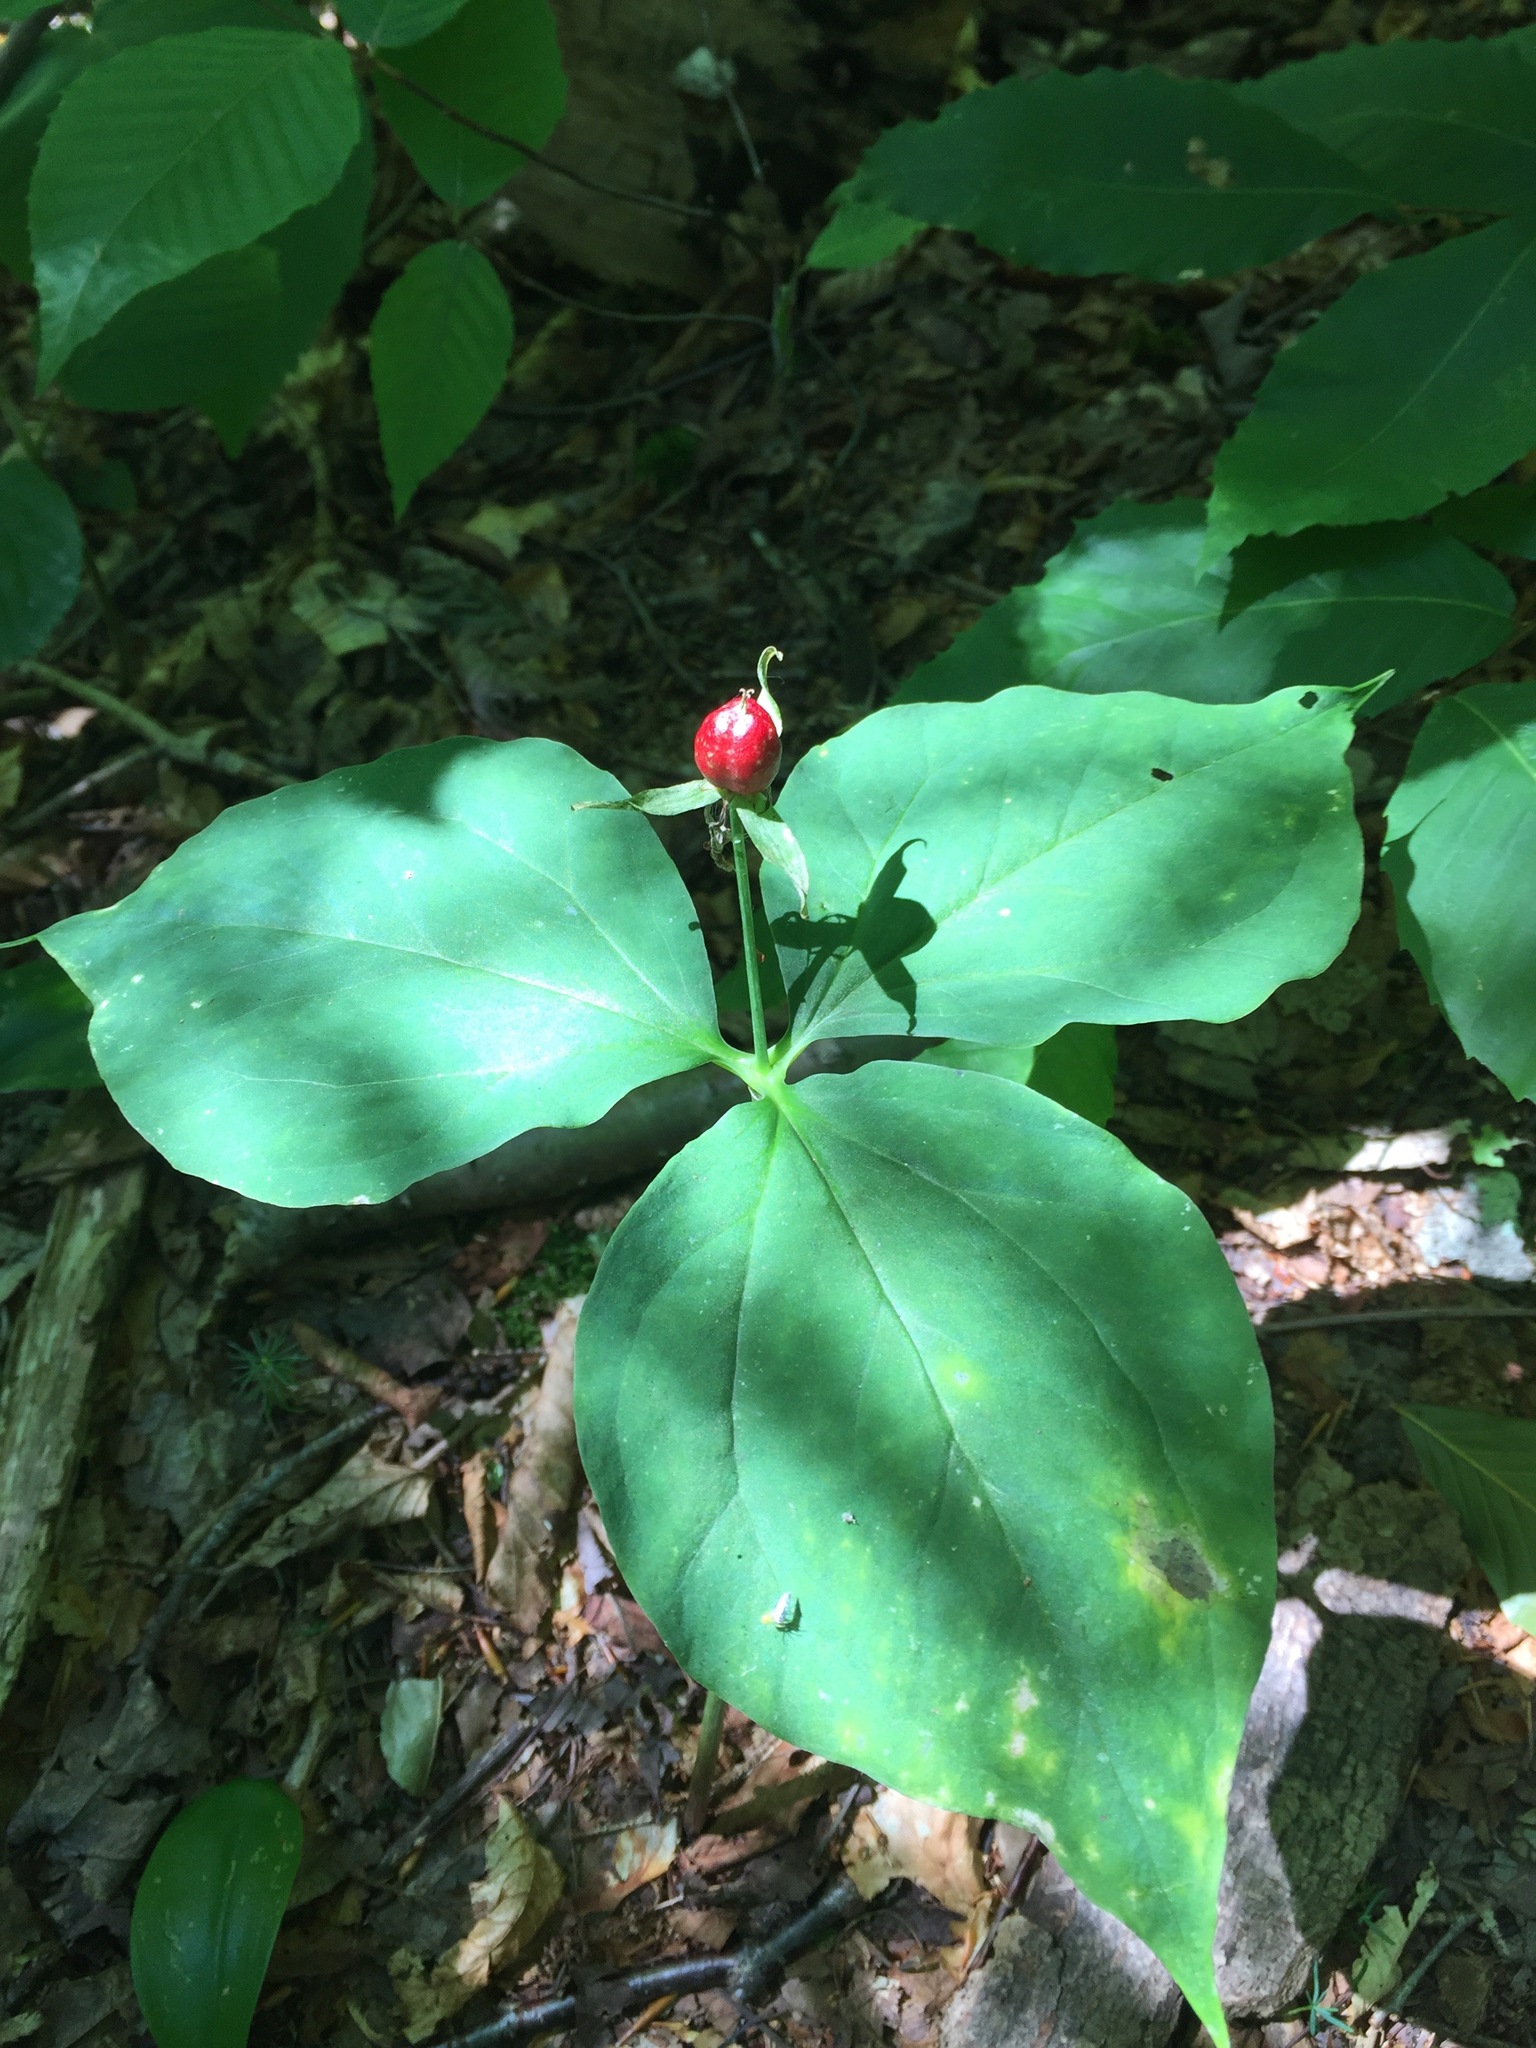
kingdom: Plantae
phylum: Tracheophyta
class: Liliopsida
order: Liliales
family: Melanthiaceae
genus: Trillium
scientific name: Trillium undulatum
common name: Paint trillium
